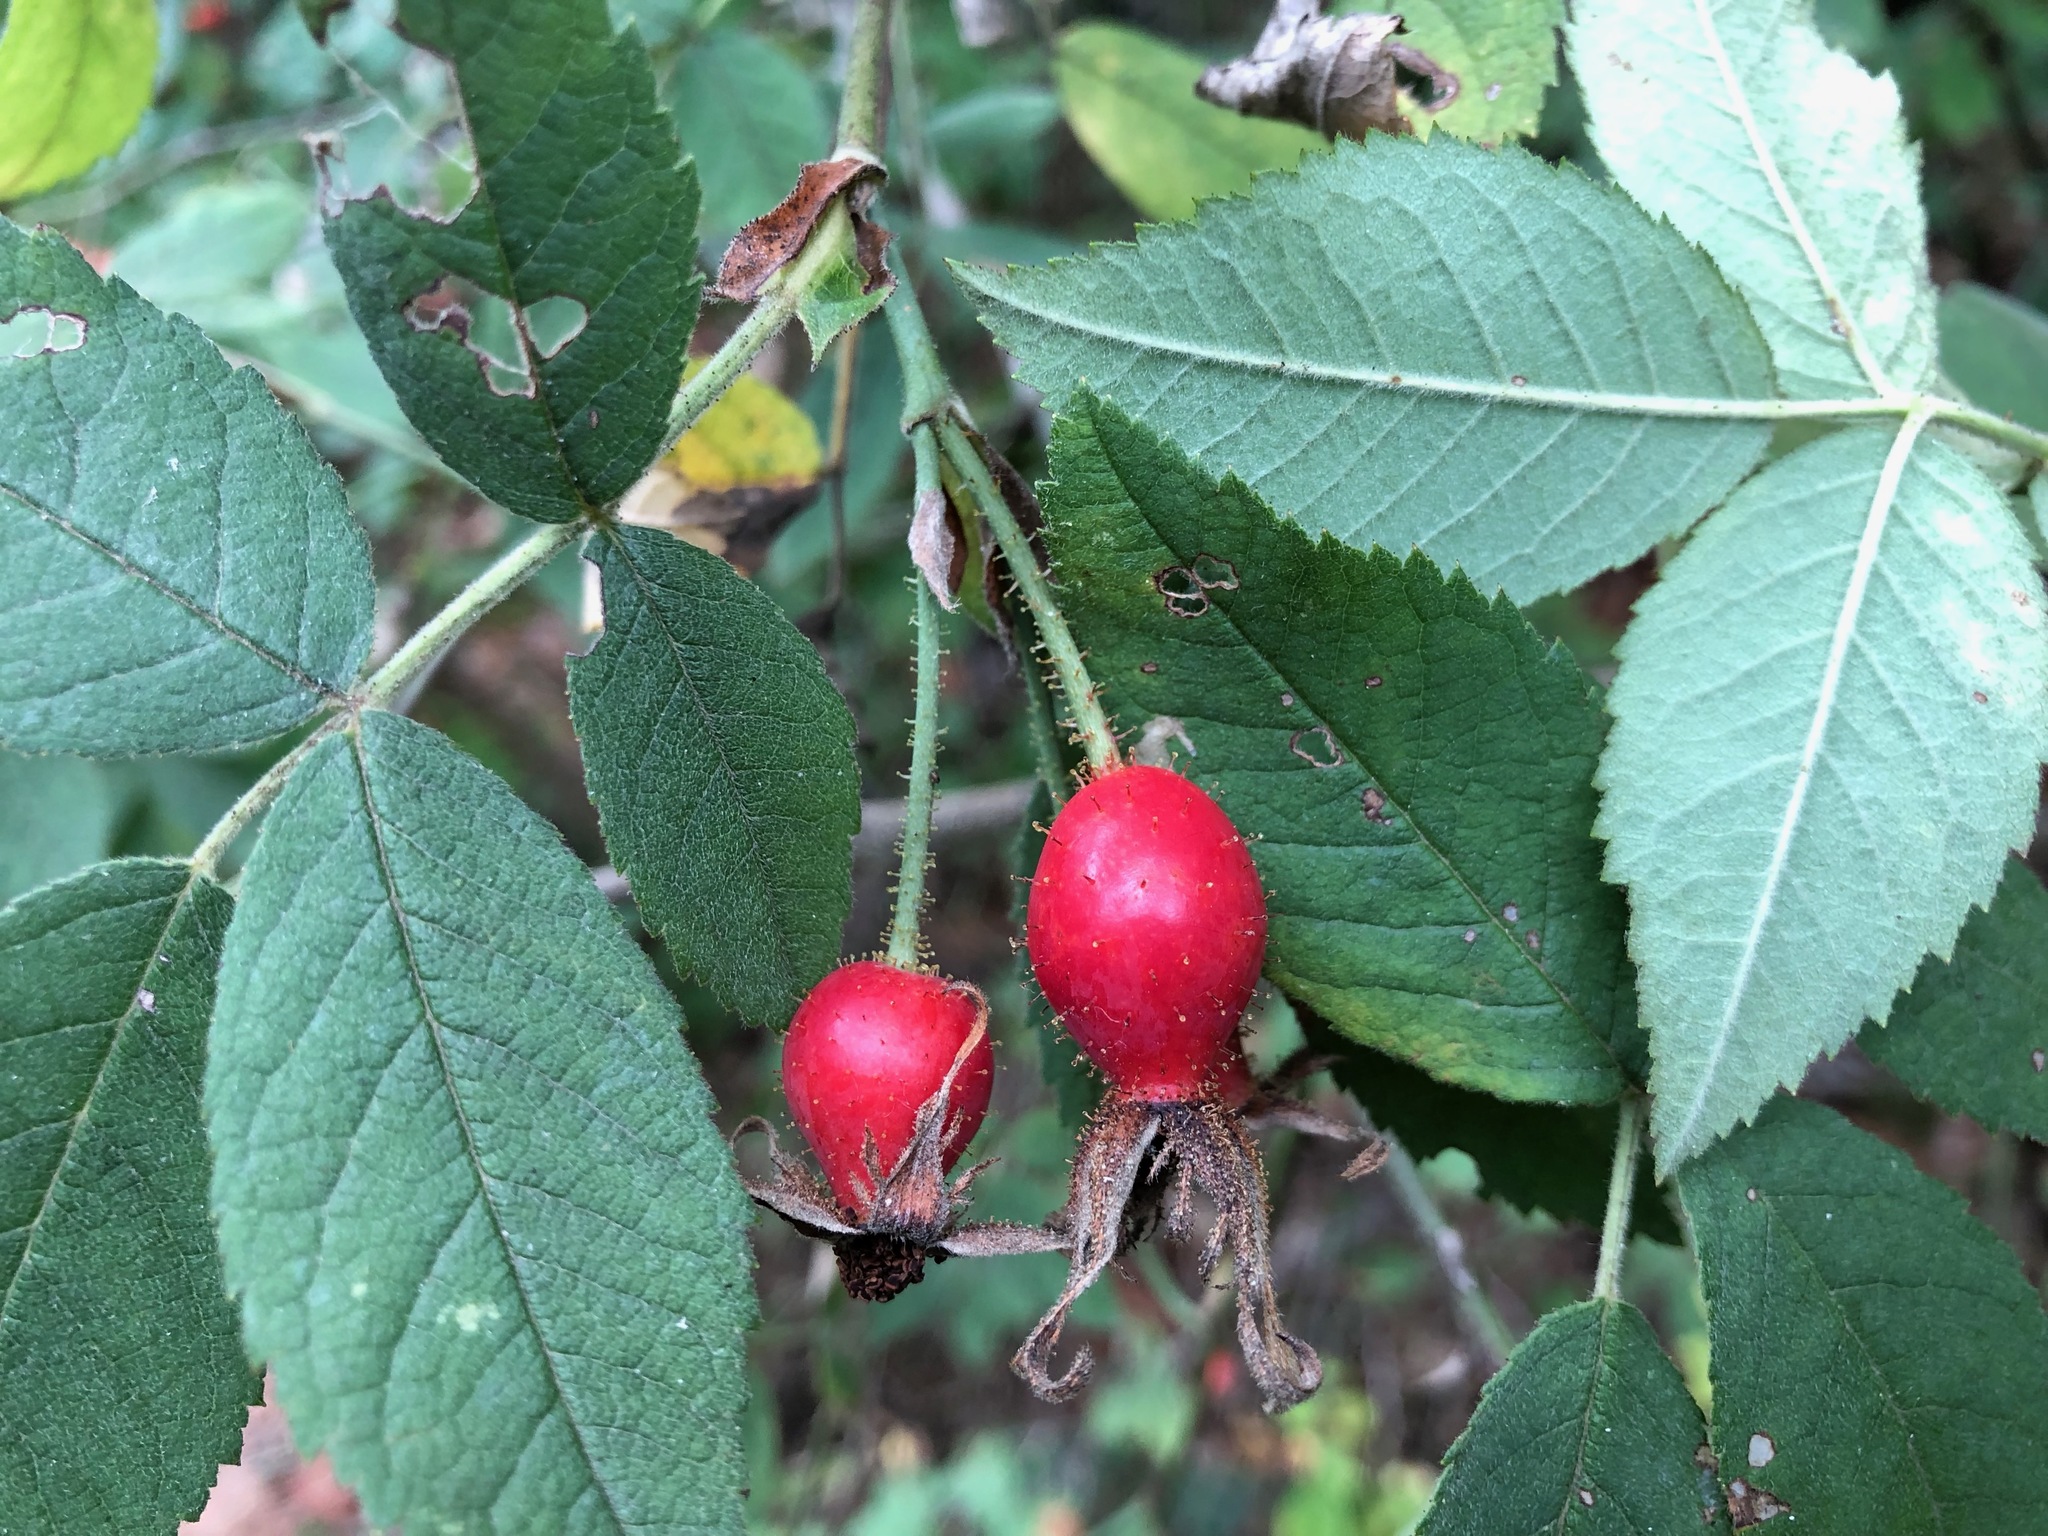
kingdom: Plantae
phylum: Tracheophyta
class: Magnoliopsida
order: Rosales
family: Rosaceae
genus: Rosa
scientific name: Rosa mollis
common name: Rose
